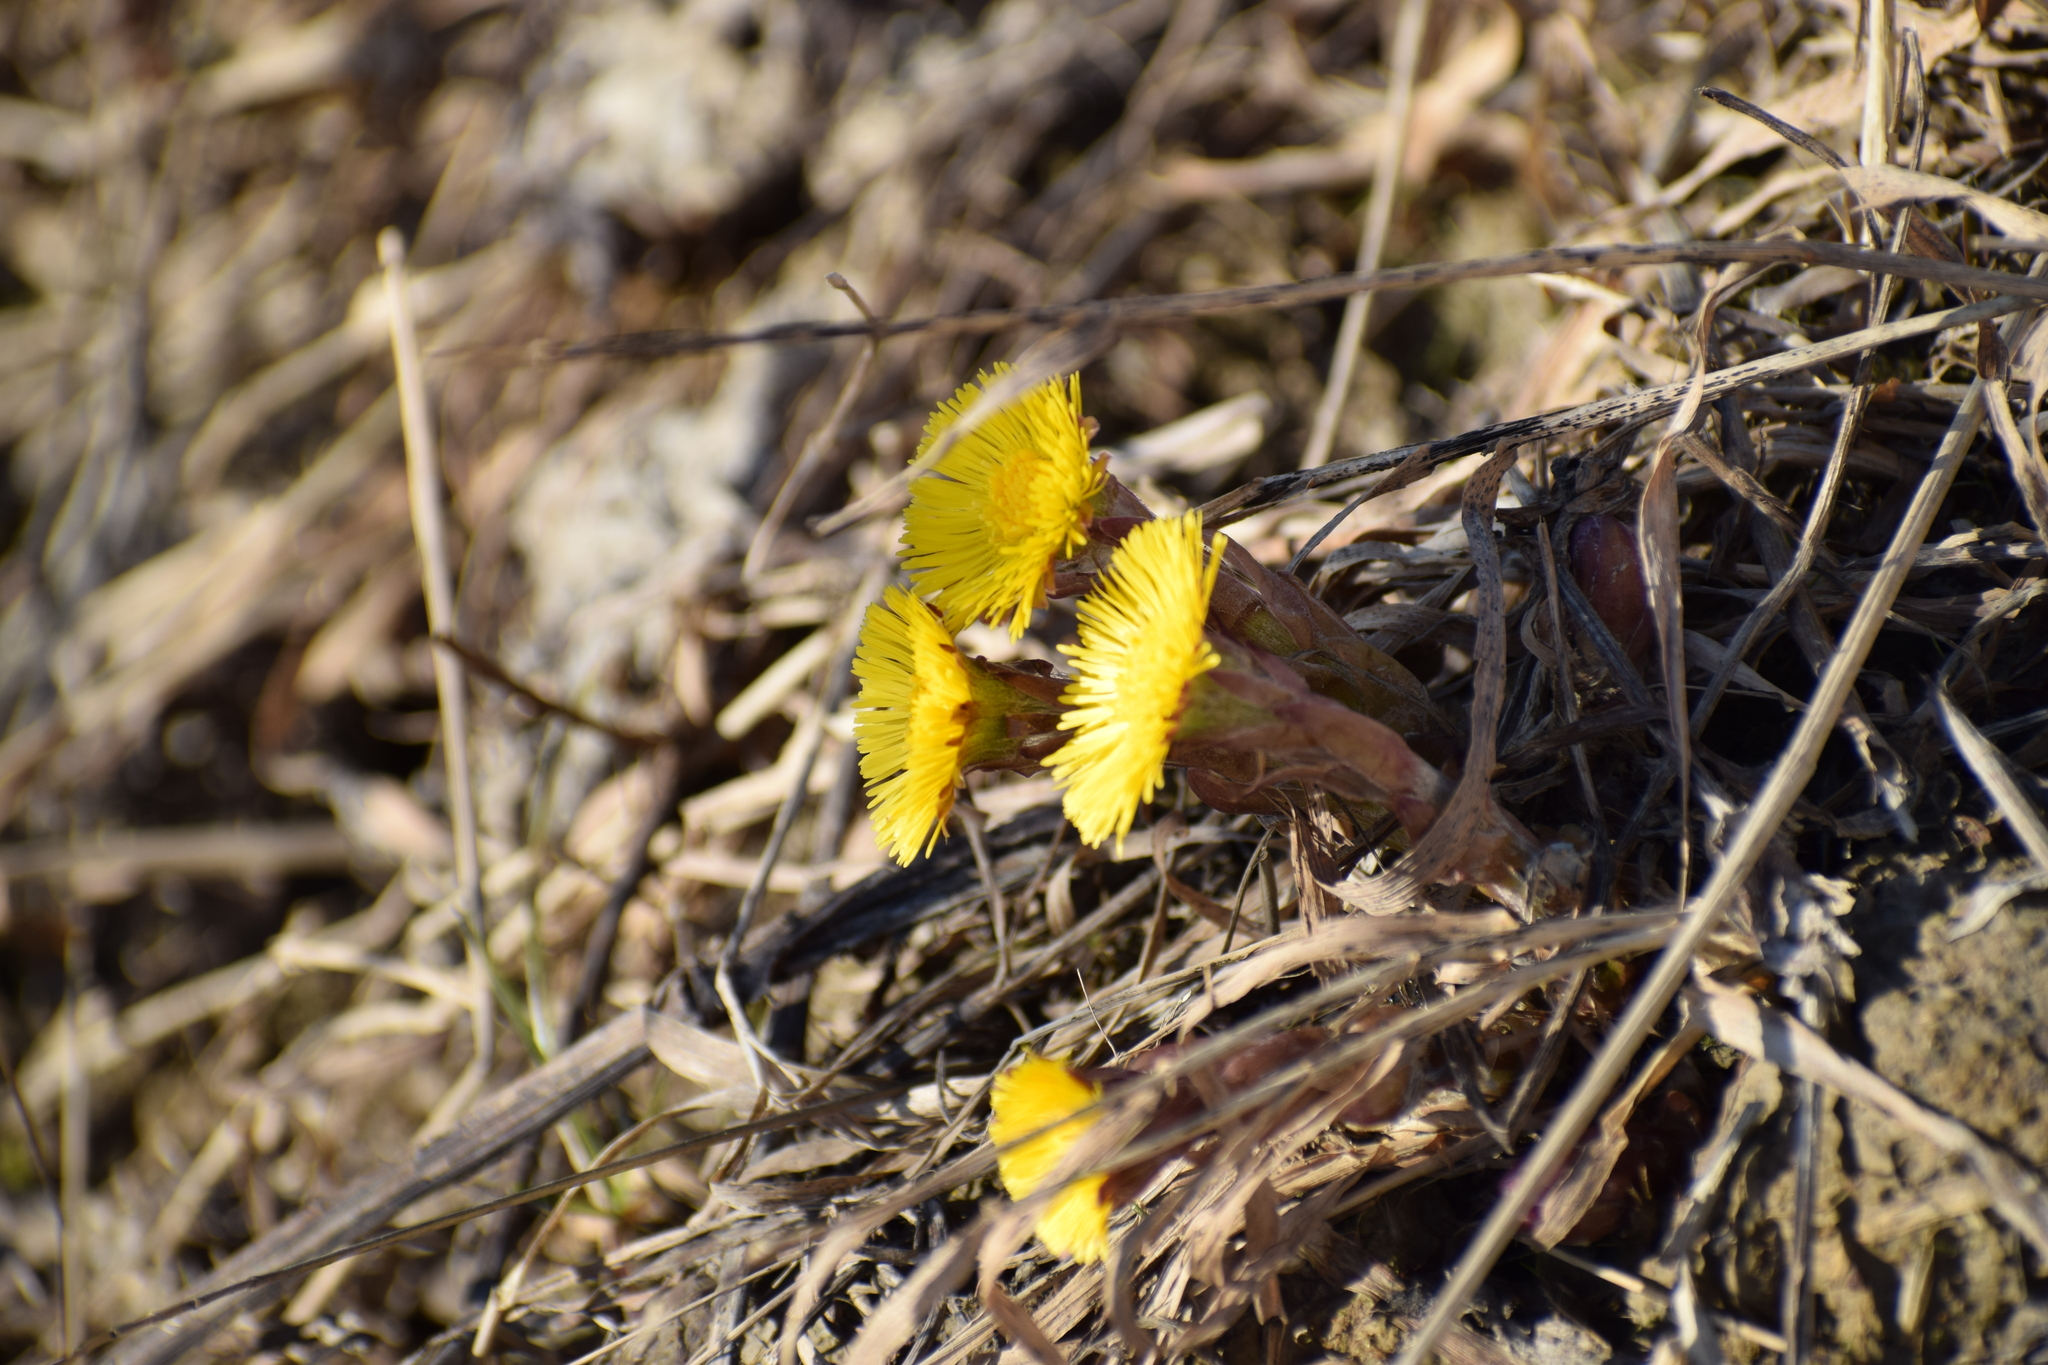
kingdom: Plantae
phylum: Tracheophyta
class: Magnoliopsida
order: Asterales
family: Asteraceae
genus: Tussilago
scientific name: Tussilago farfara
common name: Coltsfoot
